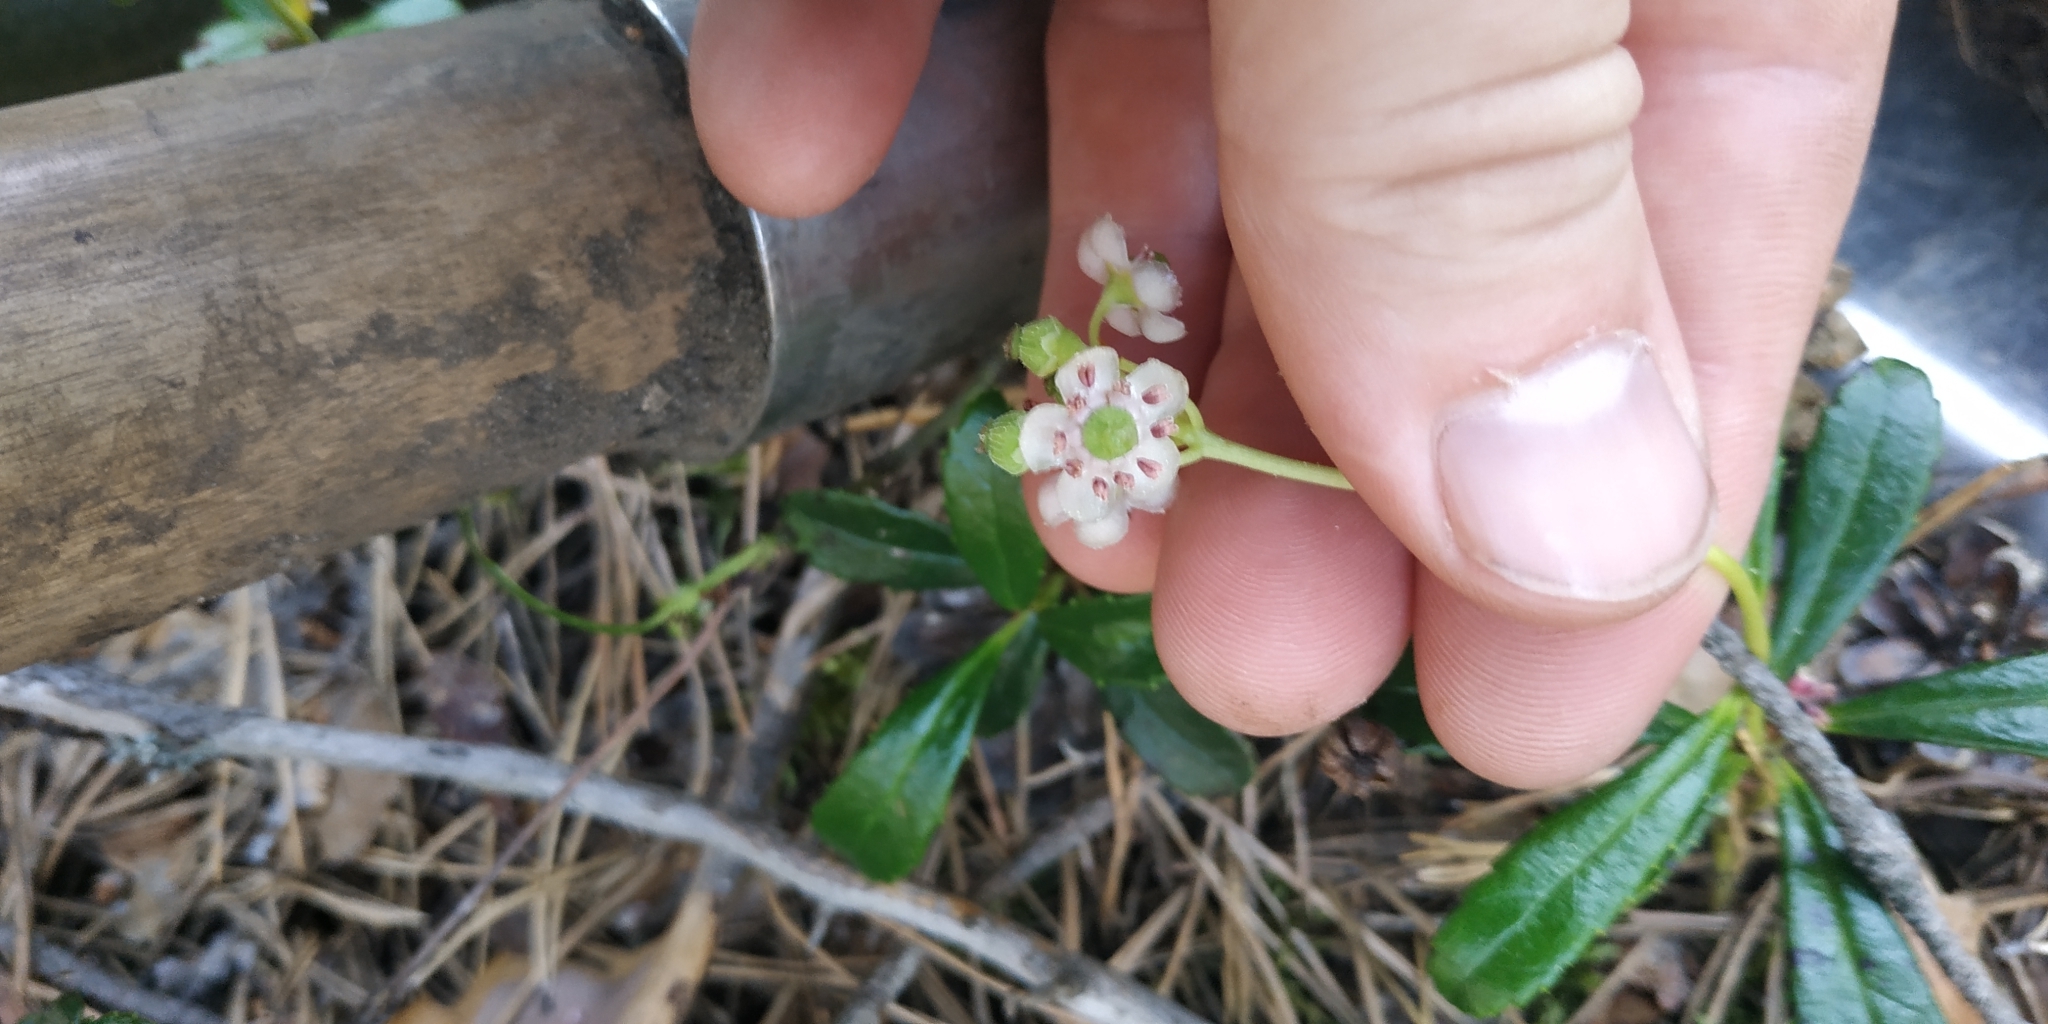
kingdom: Plantae
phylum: Tracheophyta
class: Magnoliopsida
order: Ericales
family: Ericaceae
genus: Chimaphila
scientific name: Chimaphila umbellata
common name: Pipsissewa
